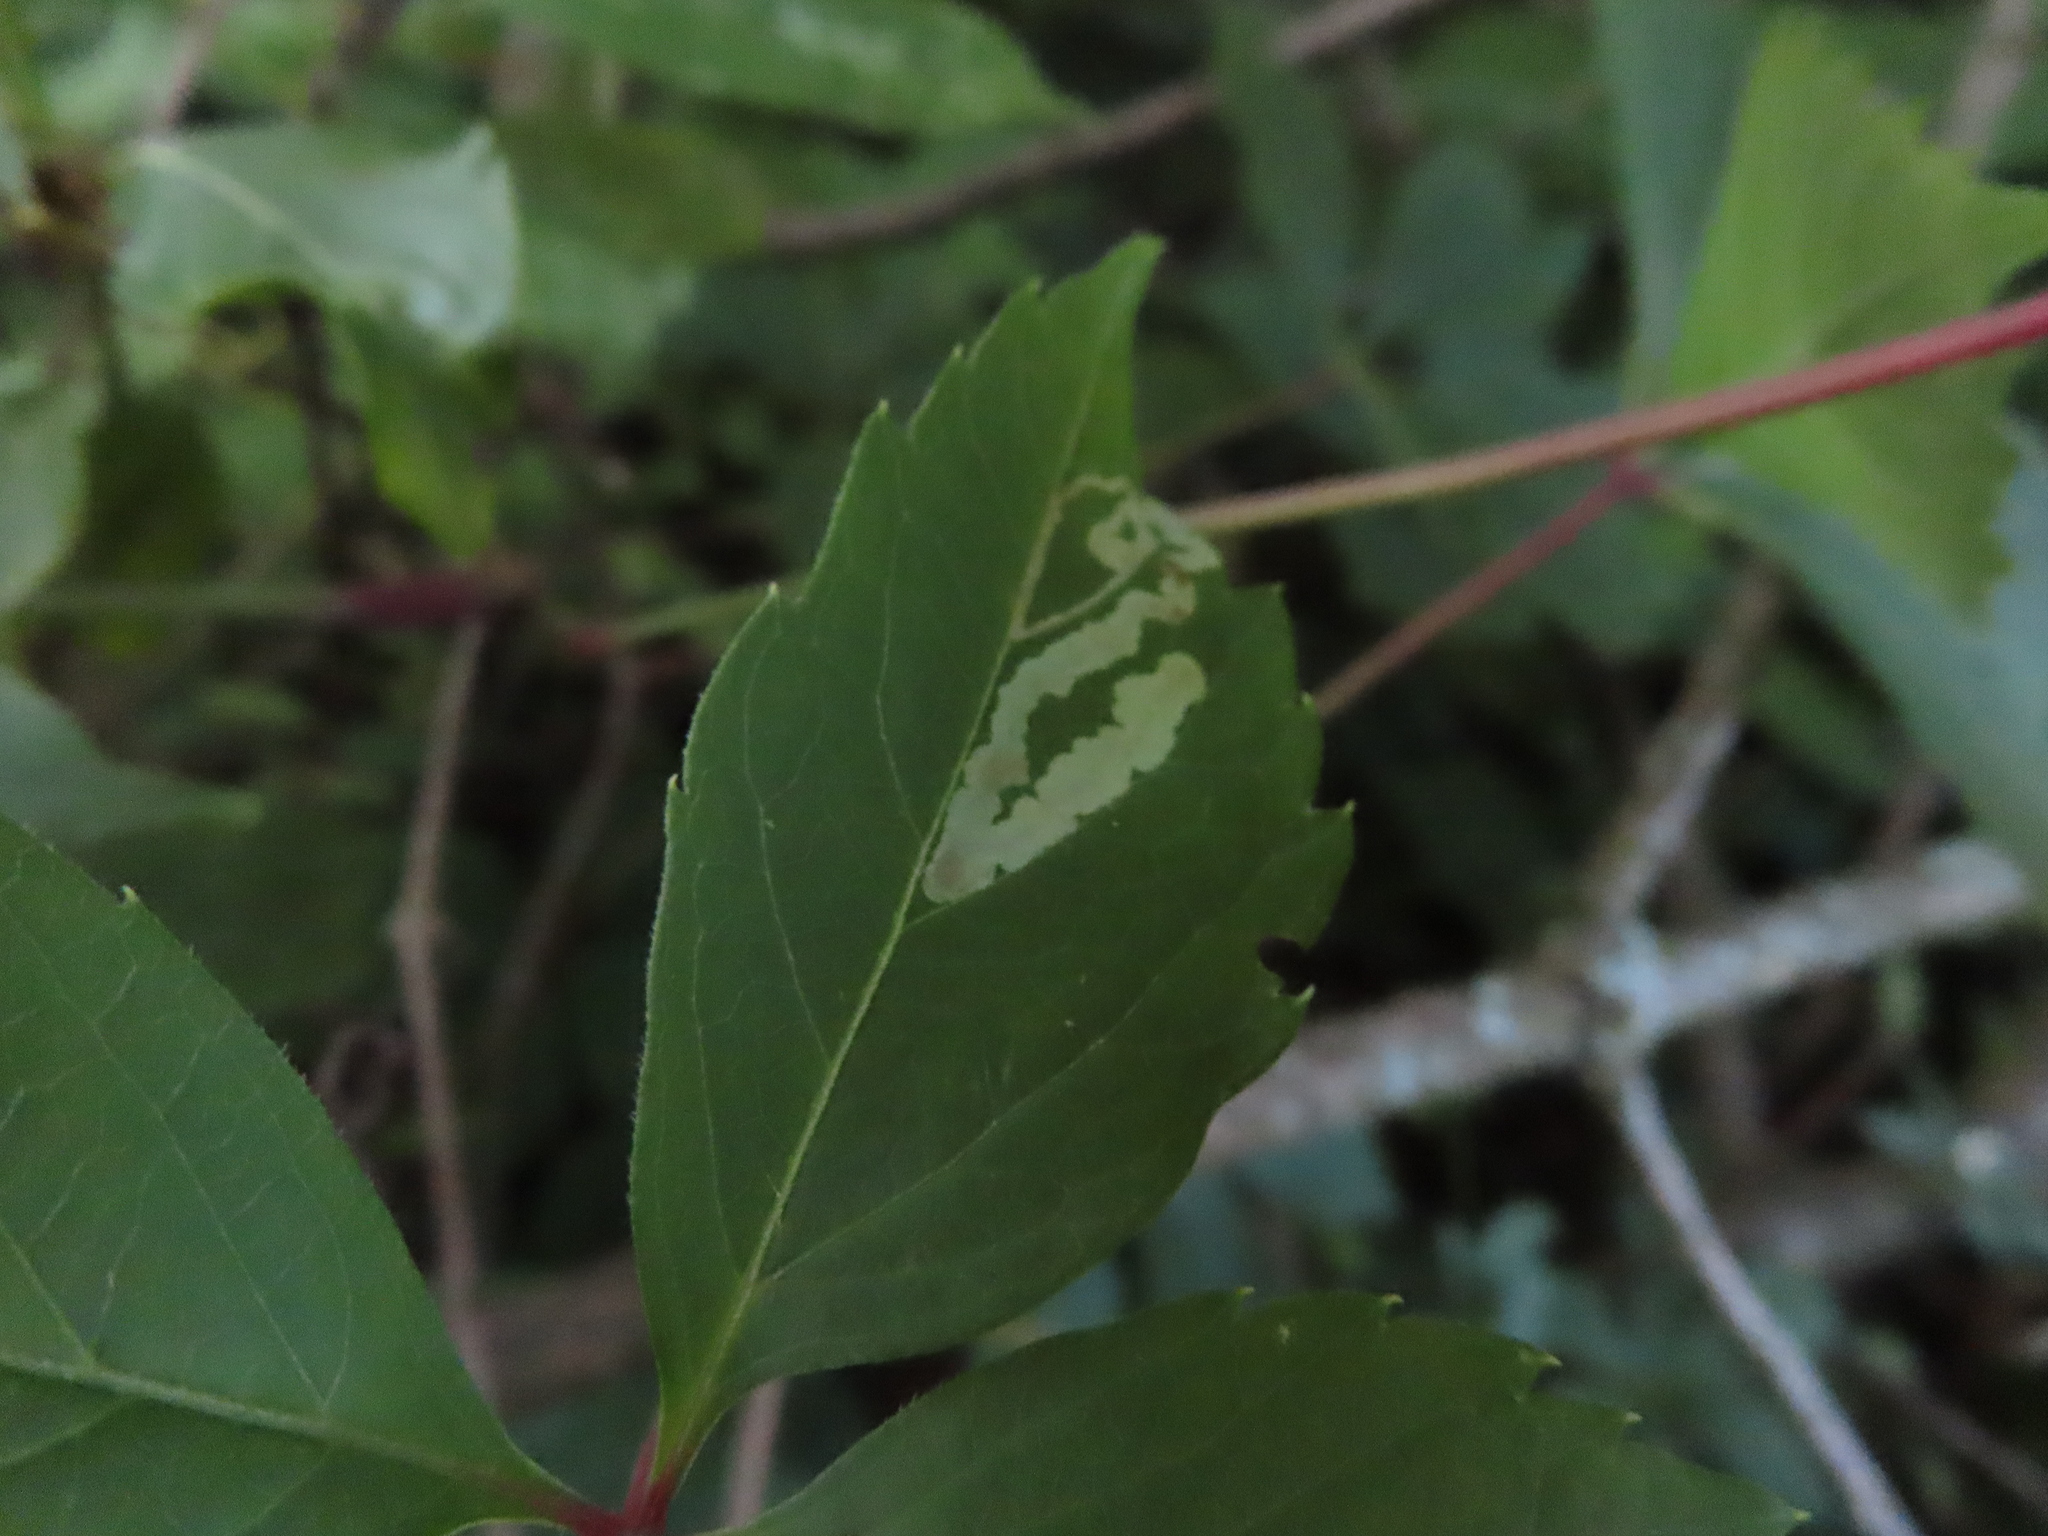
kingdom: Animalia
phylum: Arthropoda
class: Insecta
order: Lepidoptera
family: Gracillariidae
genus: Phyllocnistis
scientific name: Phyllocnistis vitifoliella
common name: Grape leaf-miner moth
